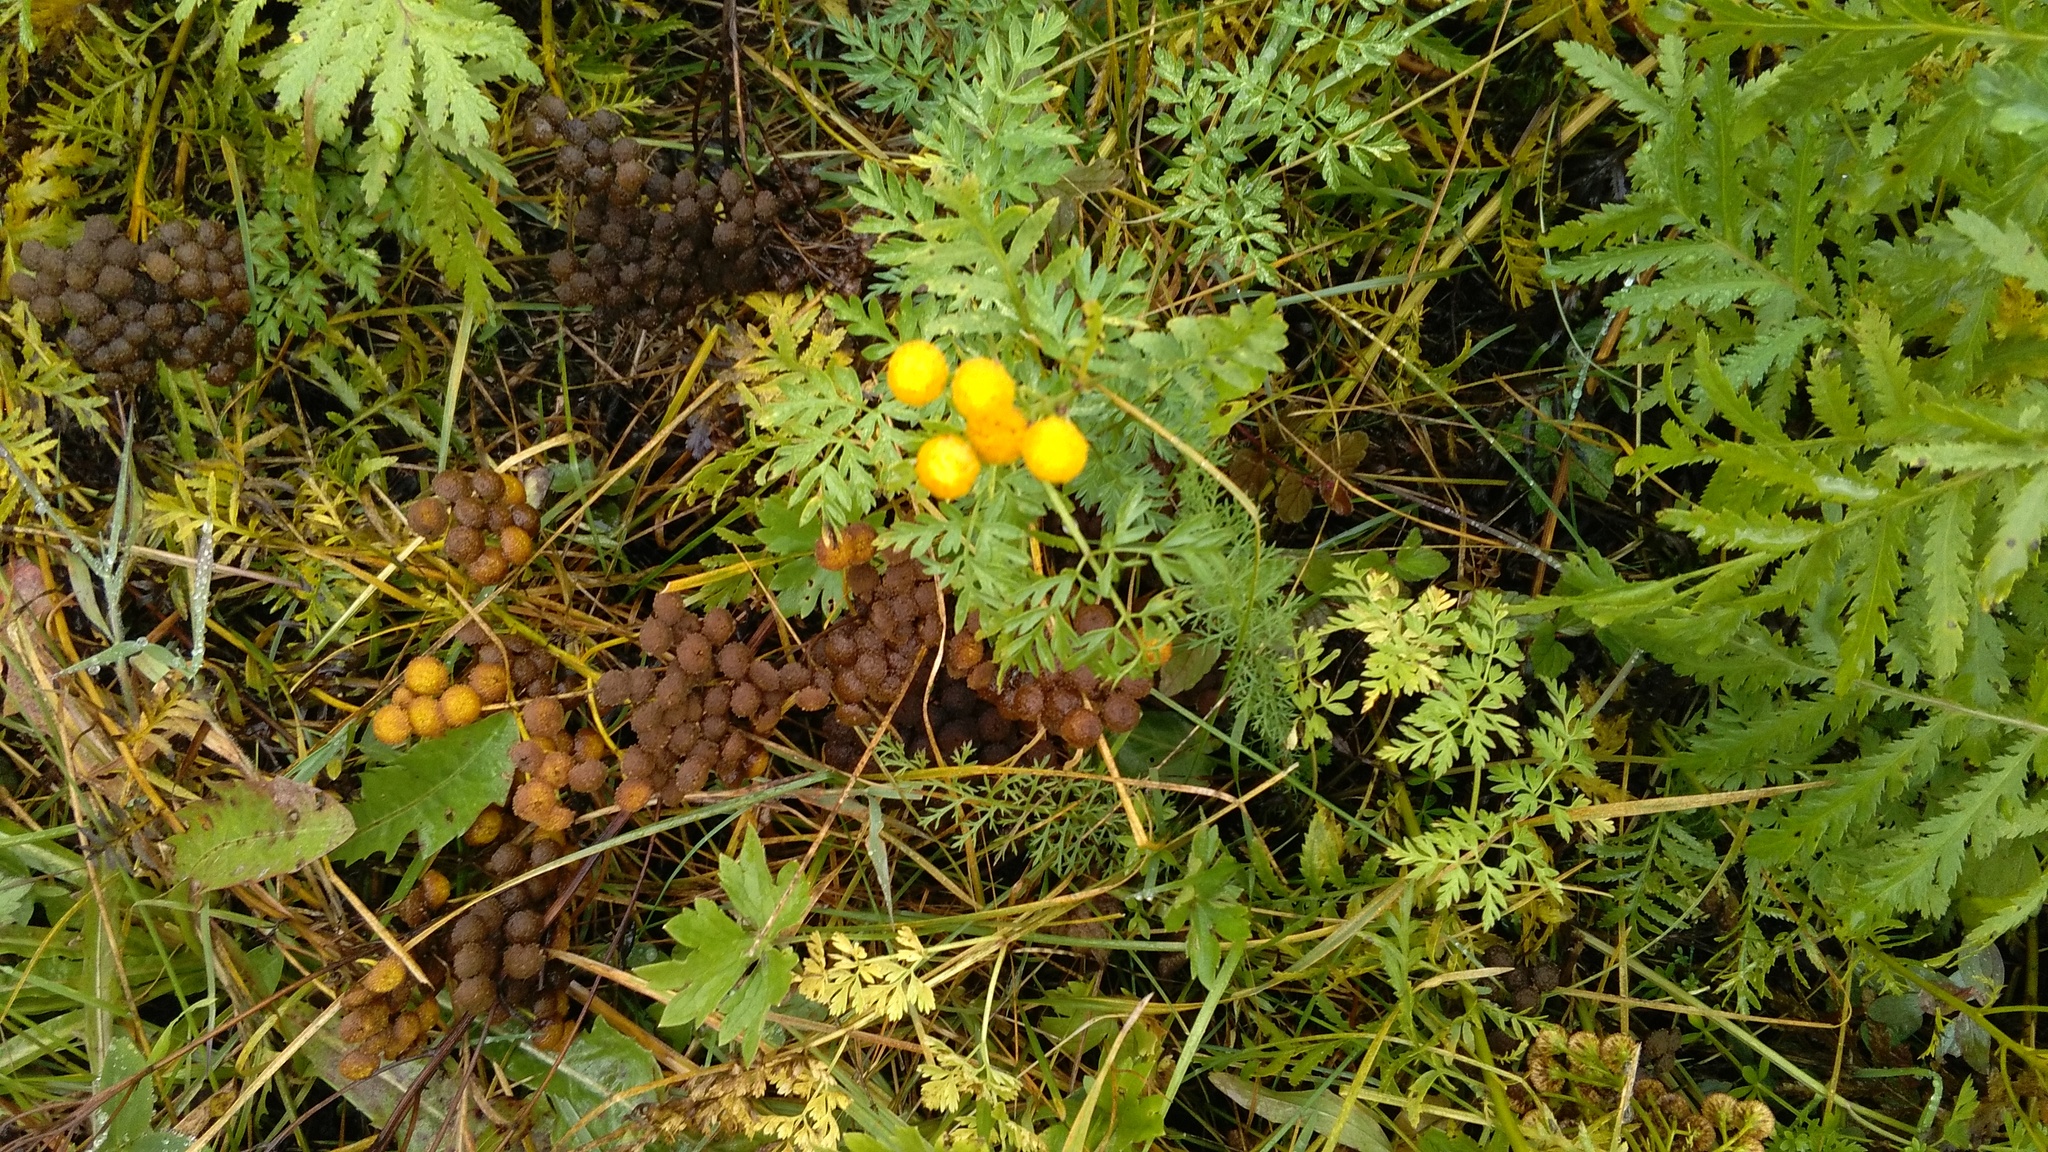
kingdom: Plantae
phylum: Tracheophyta
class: Magnoliopsida
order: Asterales
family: Asteraceae
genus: Tanacetum
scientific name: Tanacetum vulgare
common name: Common tansy
